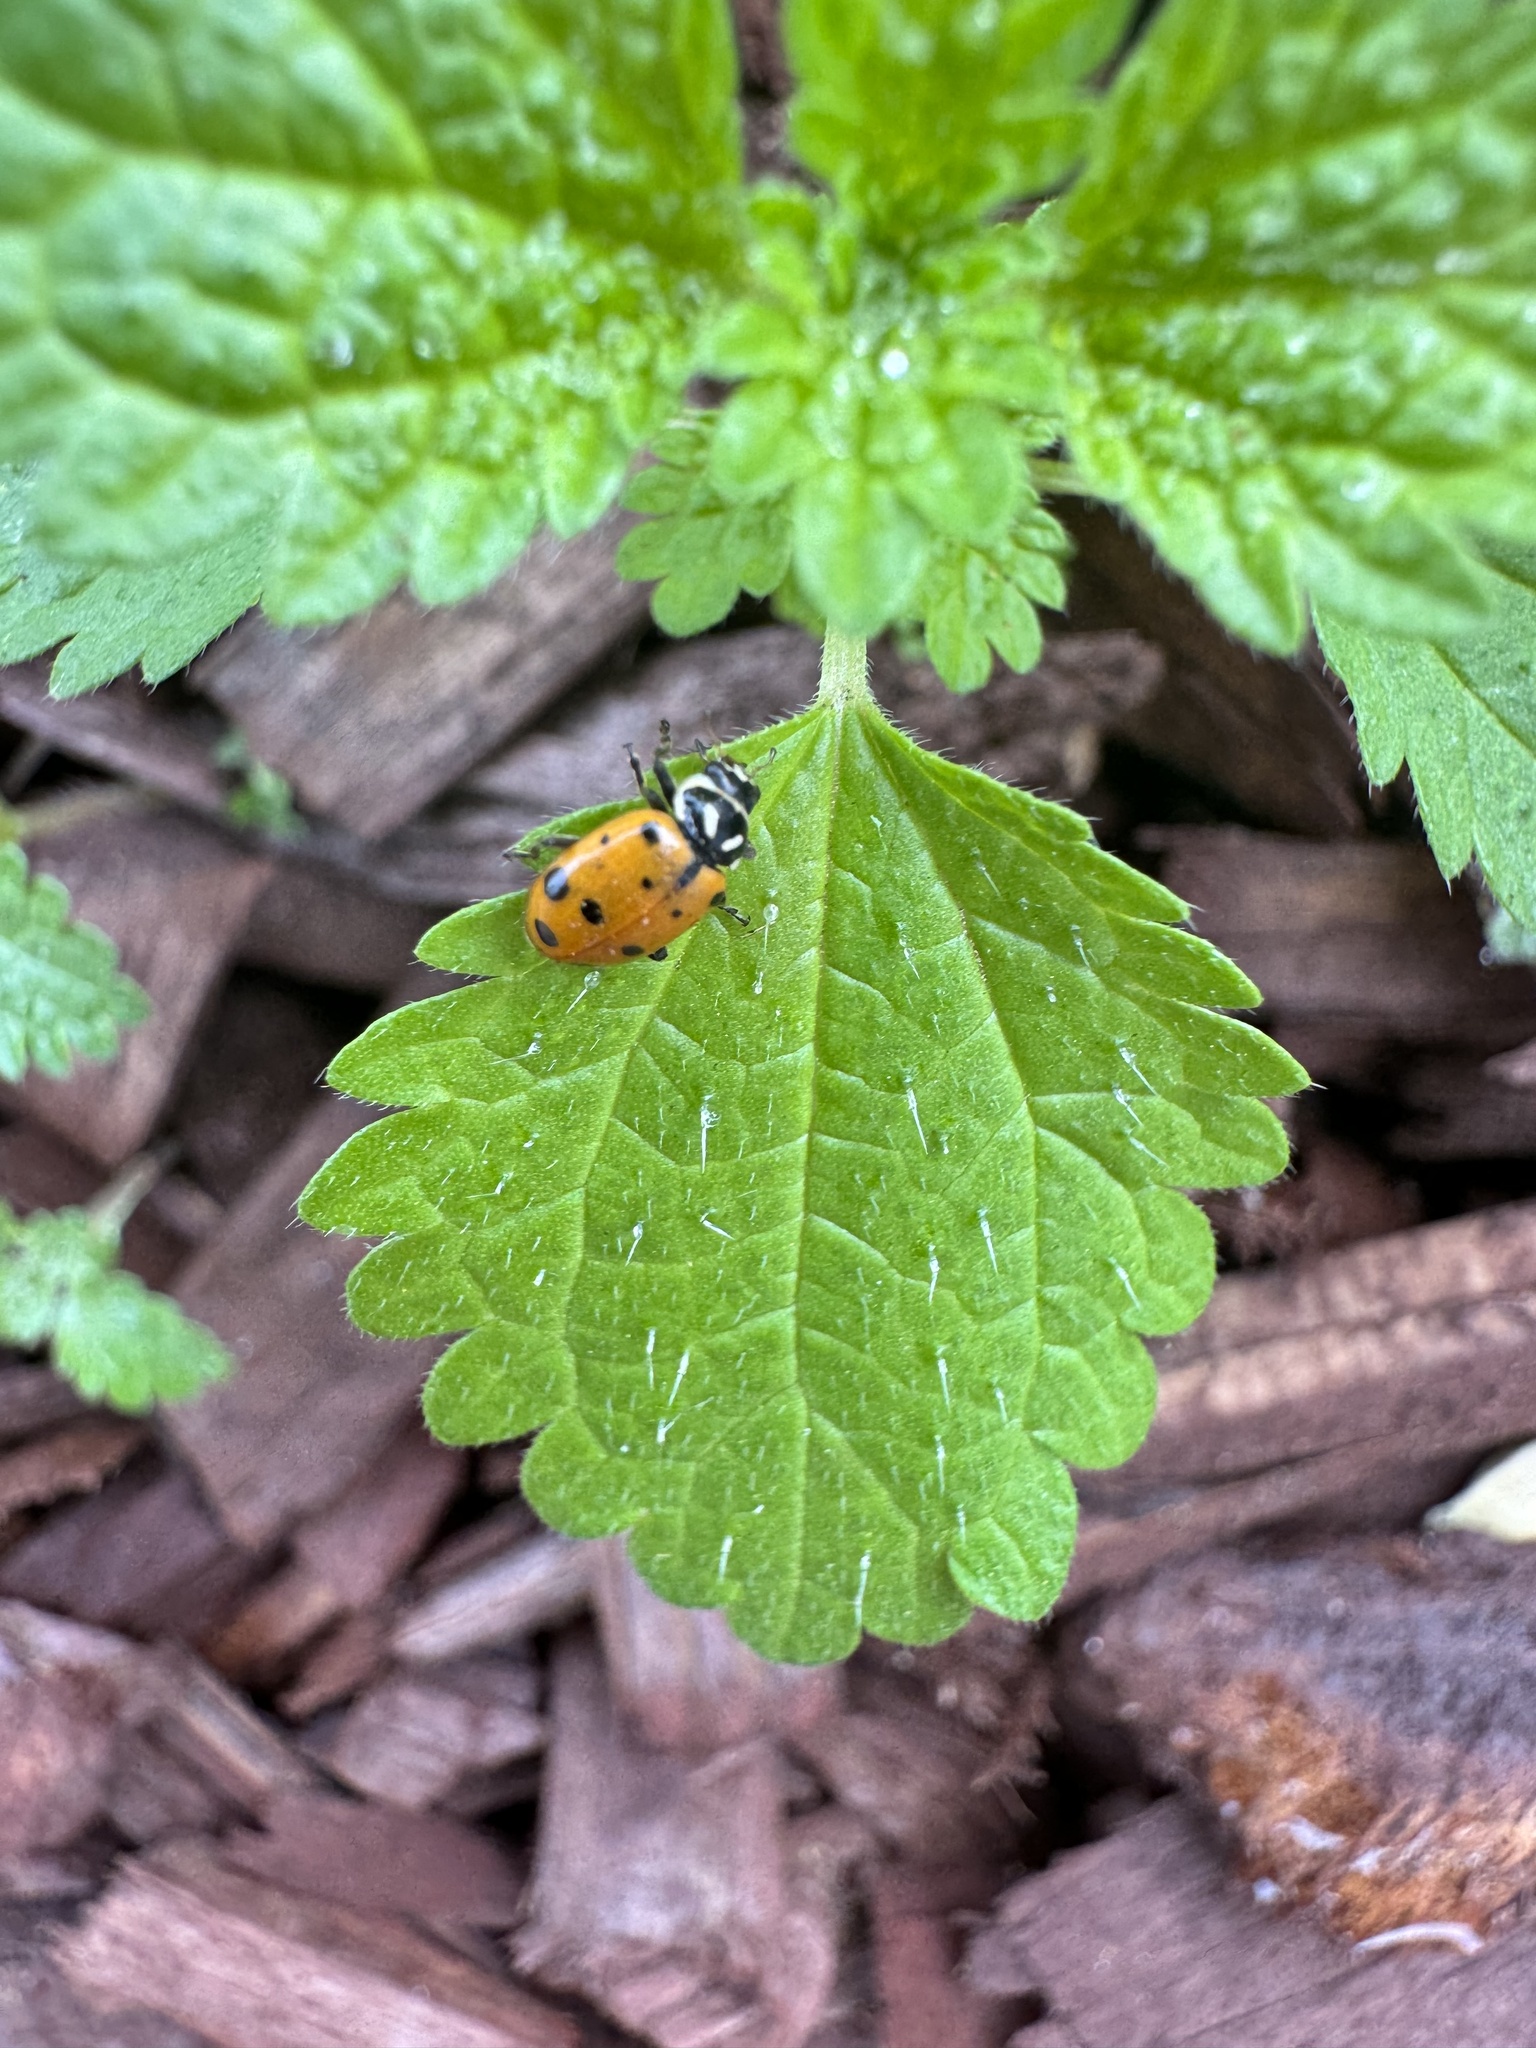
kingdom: Animalia
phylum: Arthropoda
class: Insecta
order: Coleoptera
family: Coccinellidae
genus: Hippodamia
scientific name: Hippodamia convergens
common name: Convergent lady beetle
